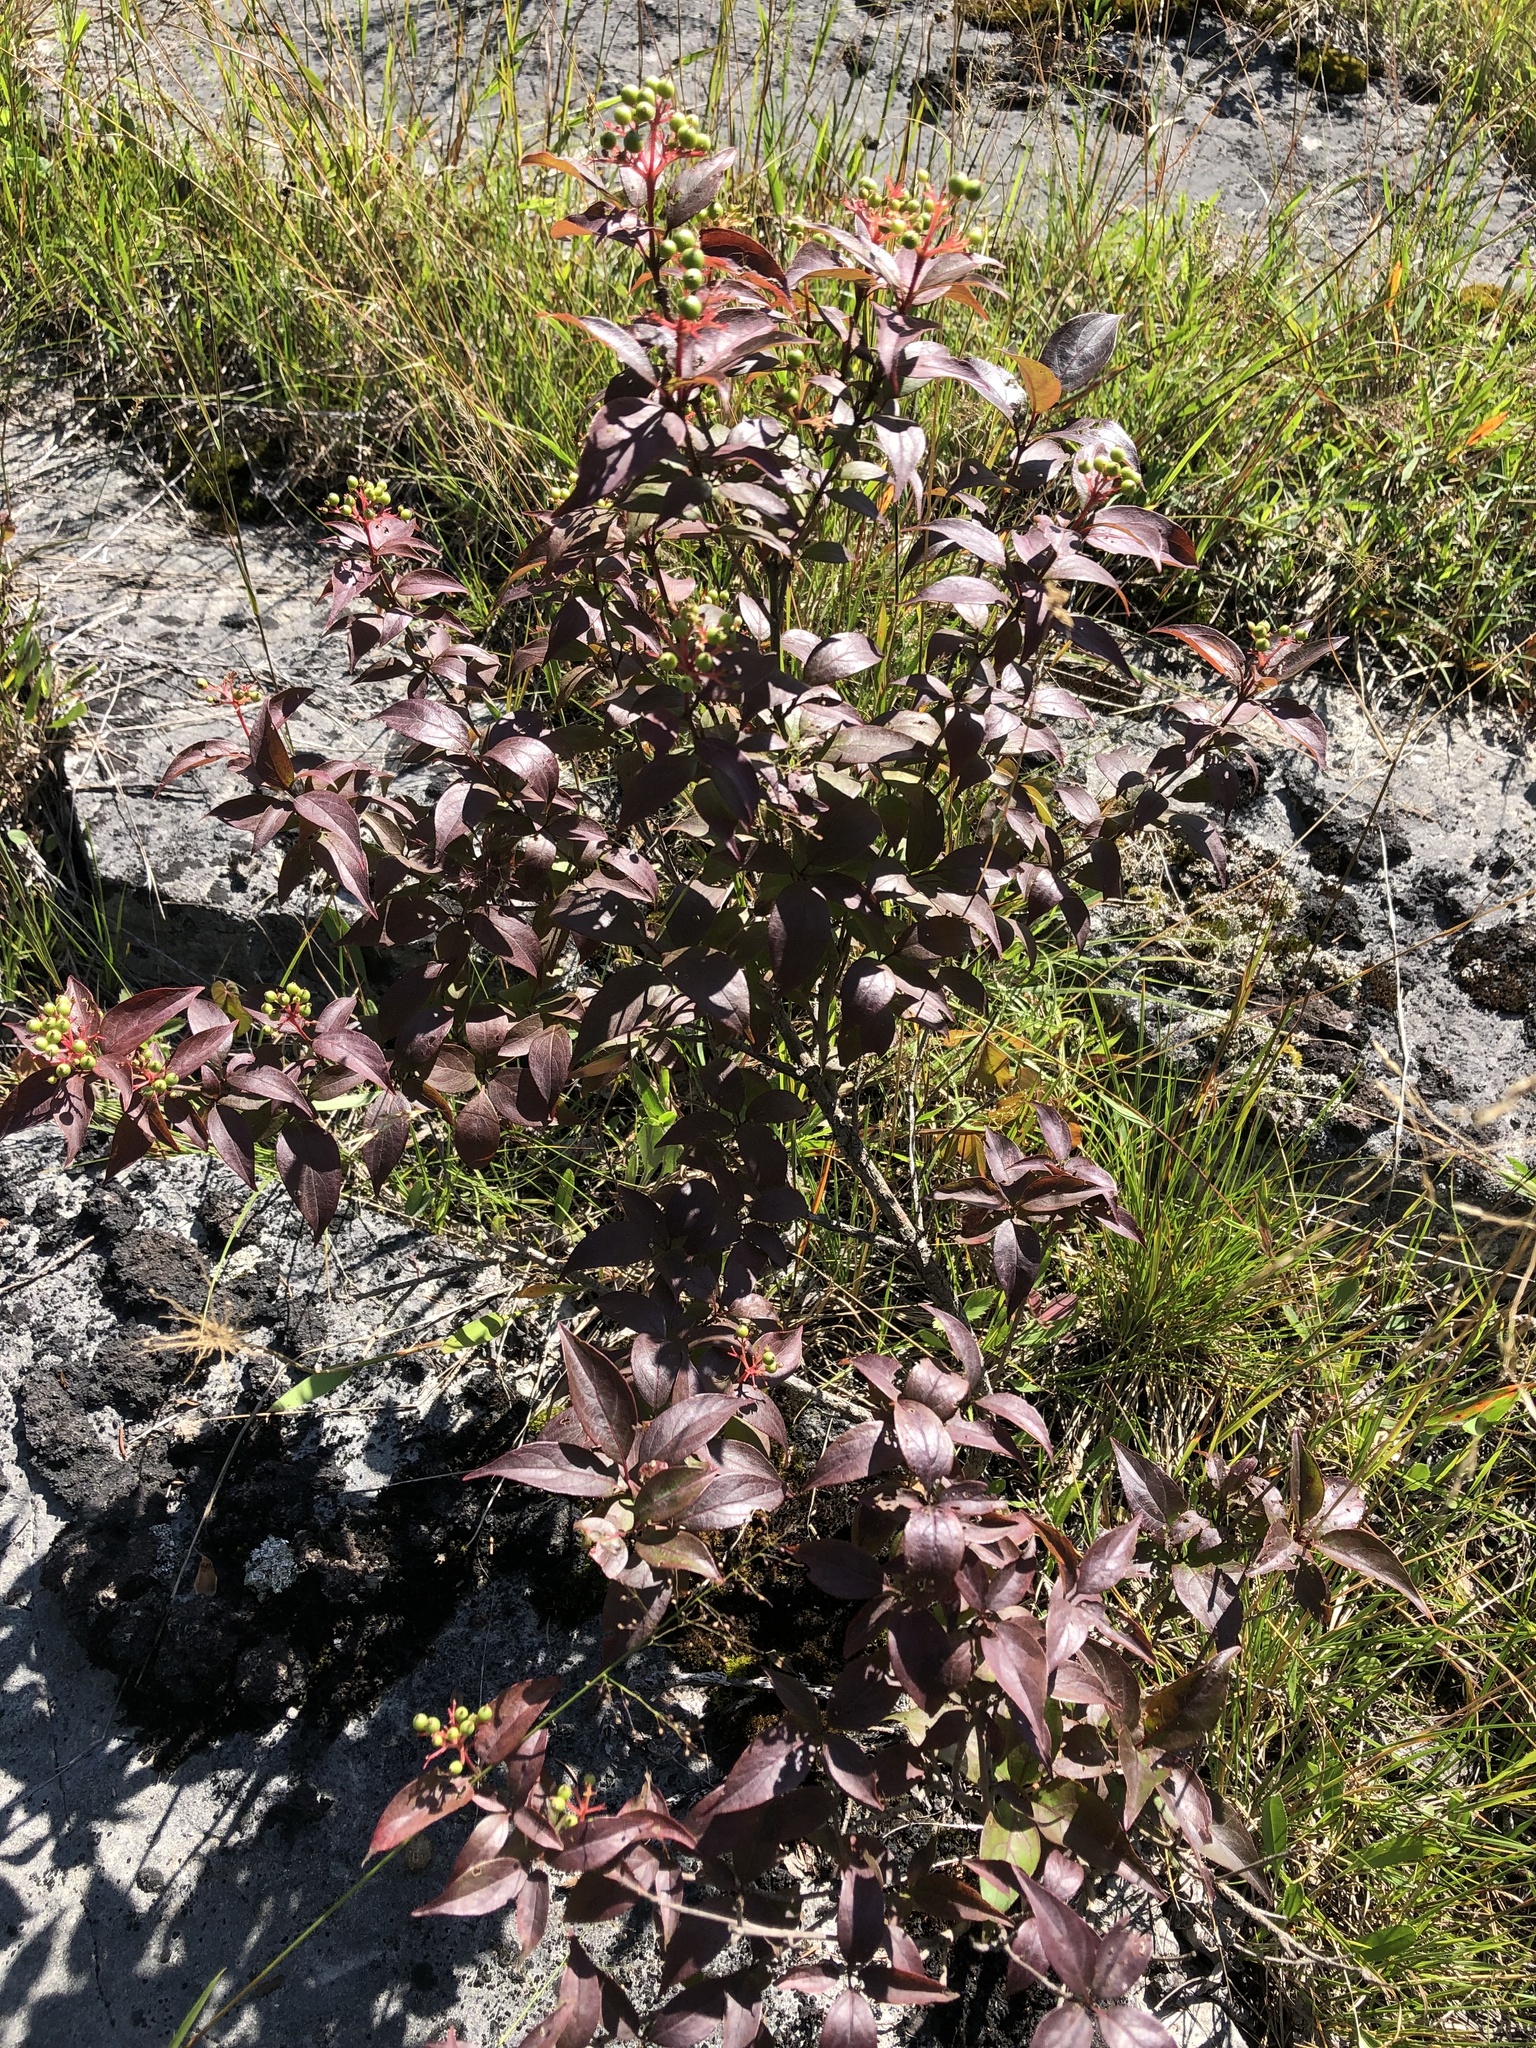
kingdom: Plantae
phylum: Tracheophyta
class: Magnoliopsida
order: Cornales
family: Cornaceae
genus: Cornus
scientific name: Cornus racemosa
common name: Panicled dogwood
